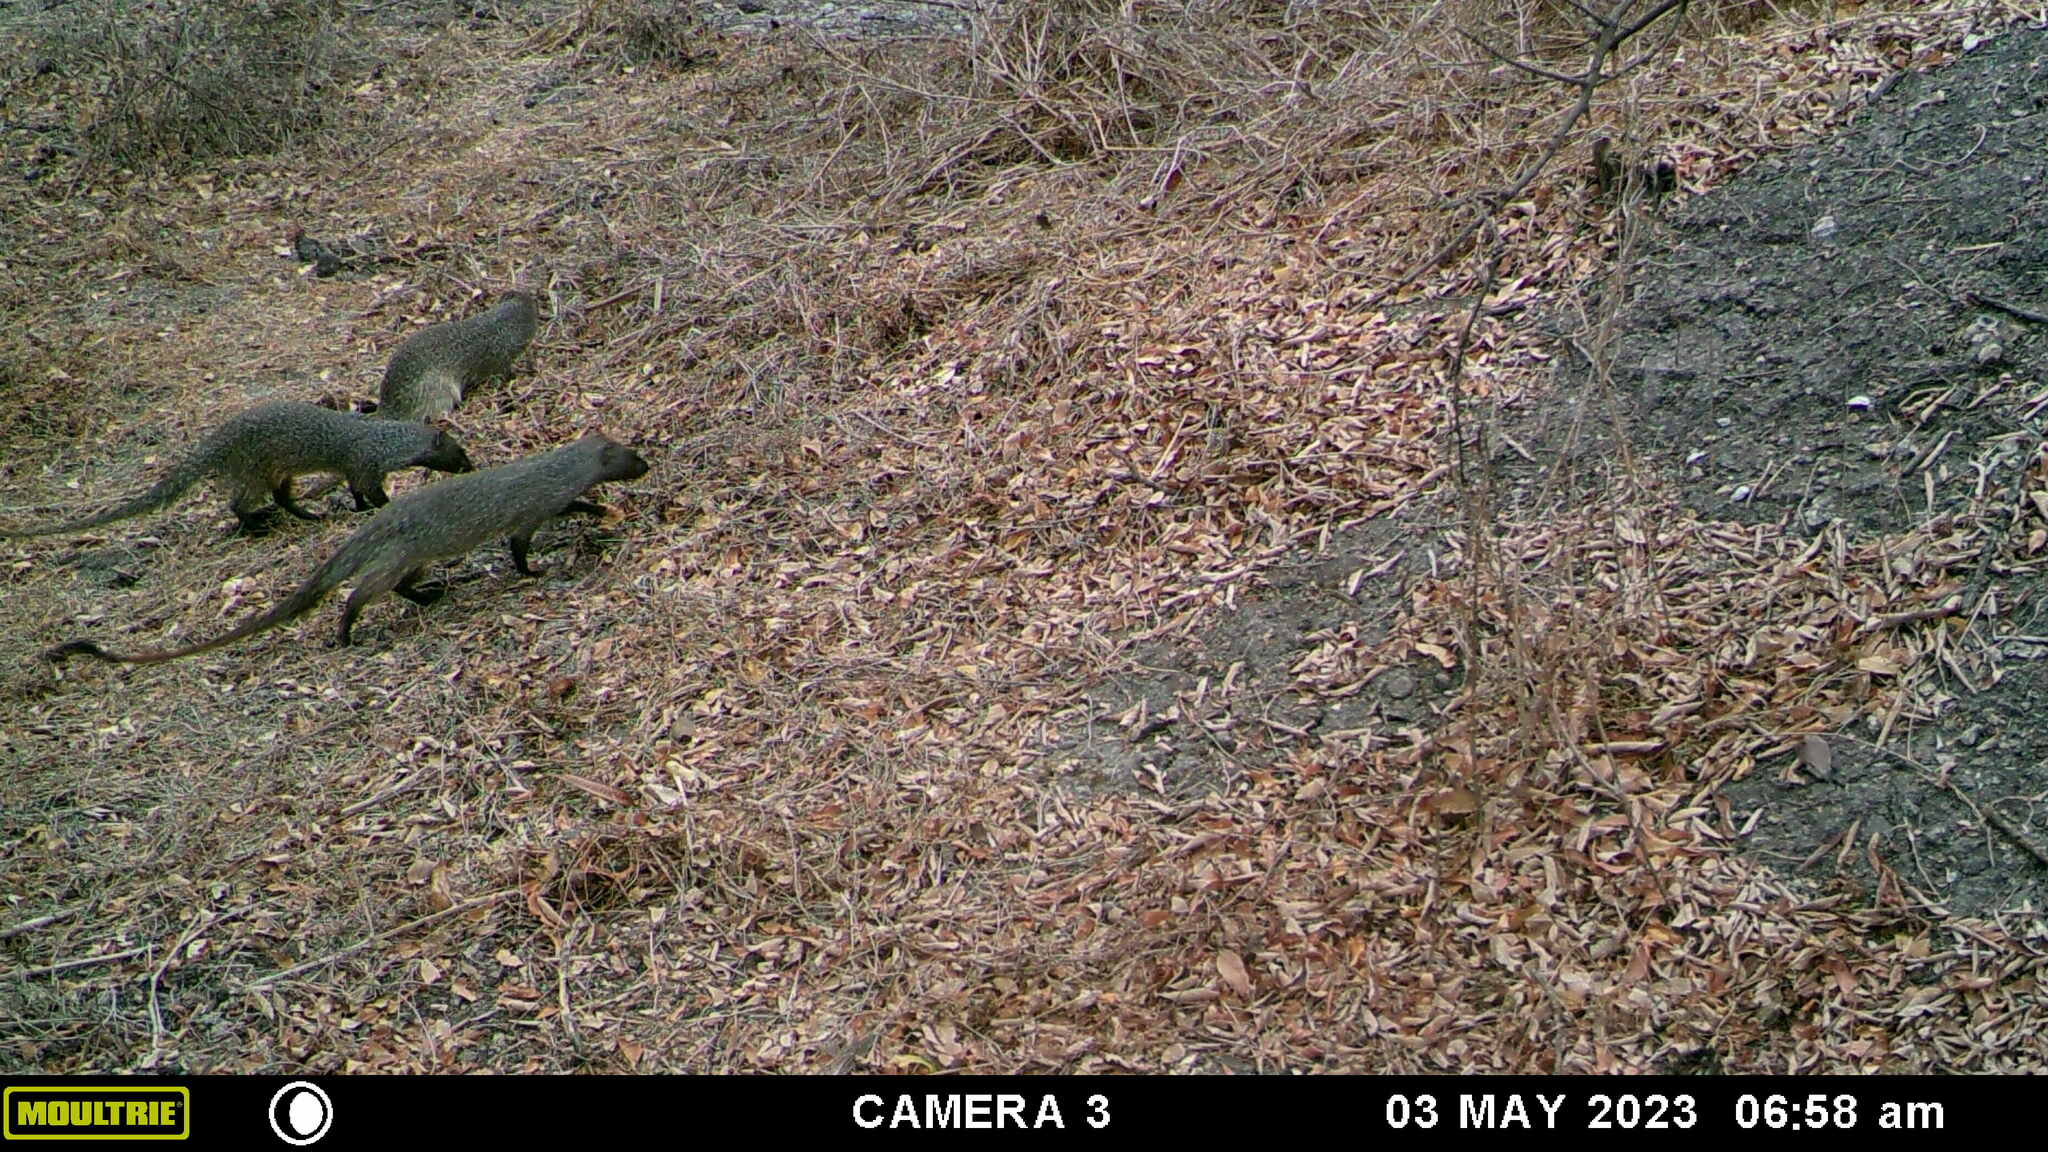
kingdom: Animalia
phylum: Chordata
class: Mammalia
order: Carnivora
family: Herpestidae
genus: Herpestes
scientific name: Herpestes ichneumon
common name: Egyptian mongoose
